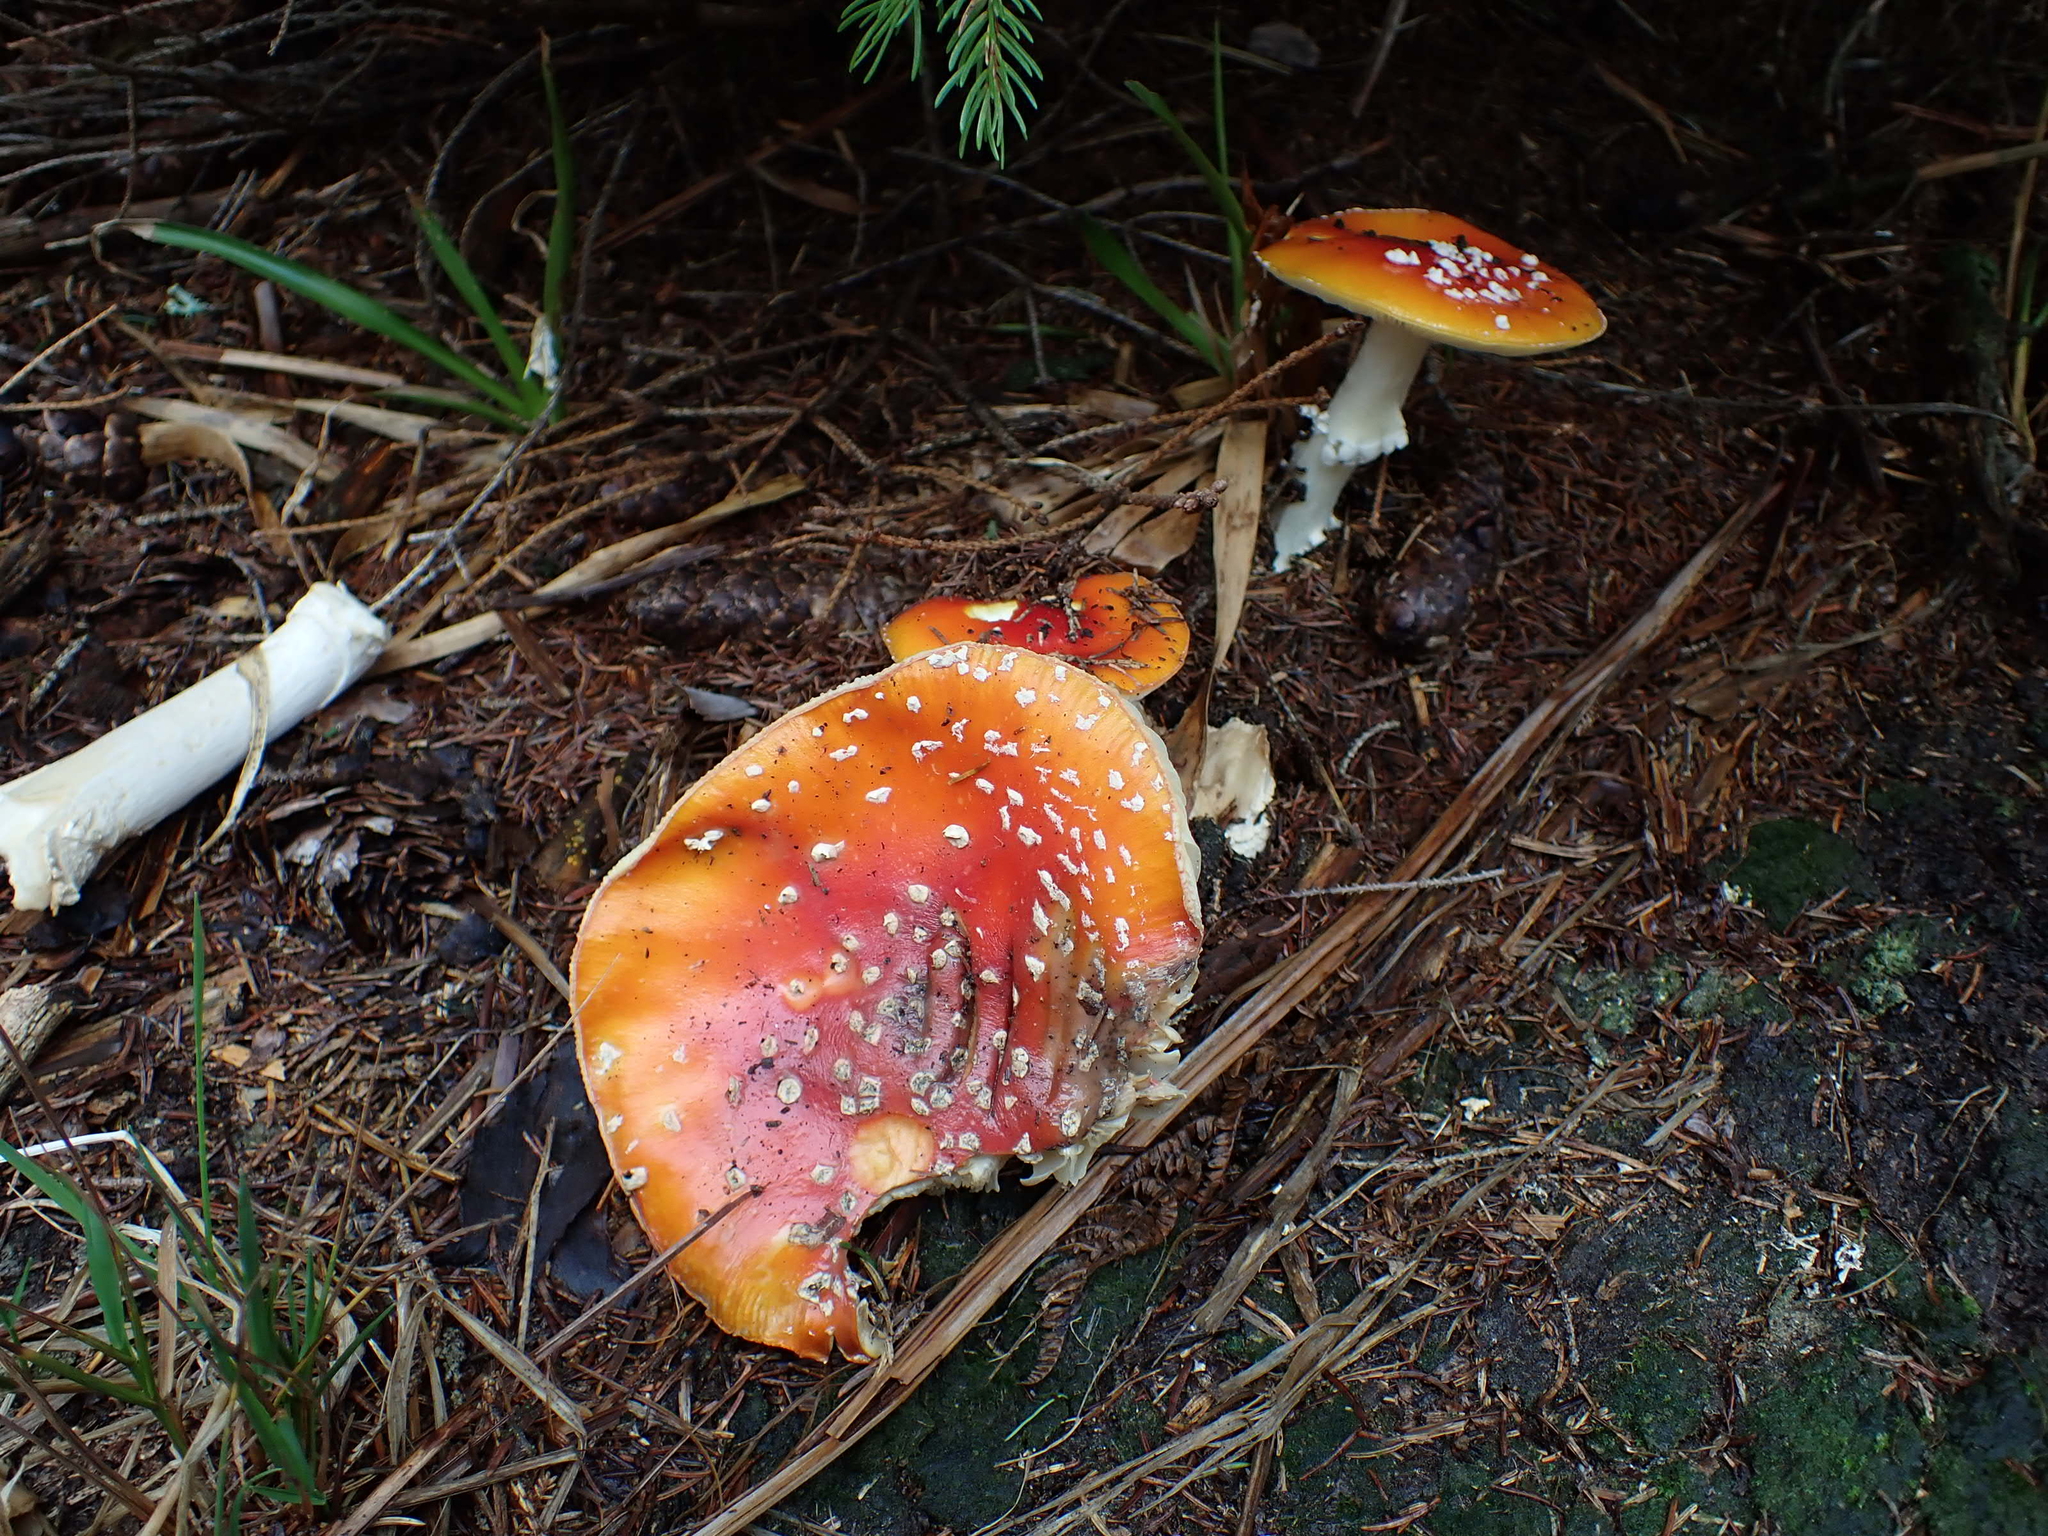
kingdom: Fungi
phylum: Basidiomycota
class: Agaricomycetes
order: Agaricales
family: Amanitaceae
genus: Amanita
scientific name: Amanita muscaria
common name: Fly agaric
